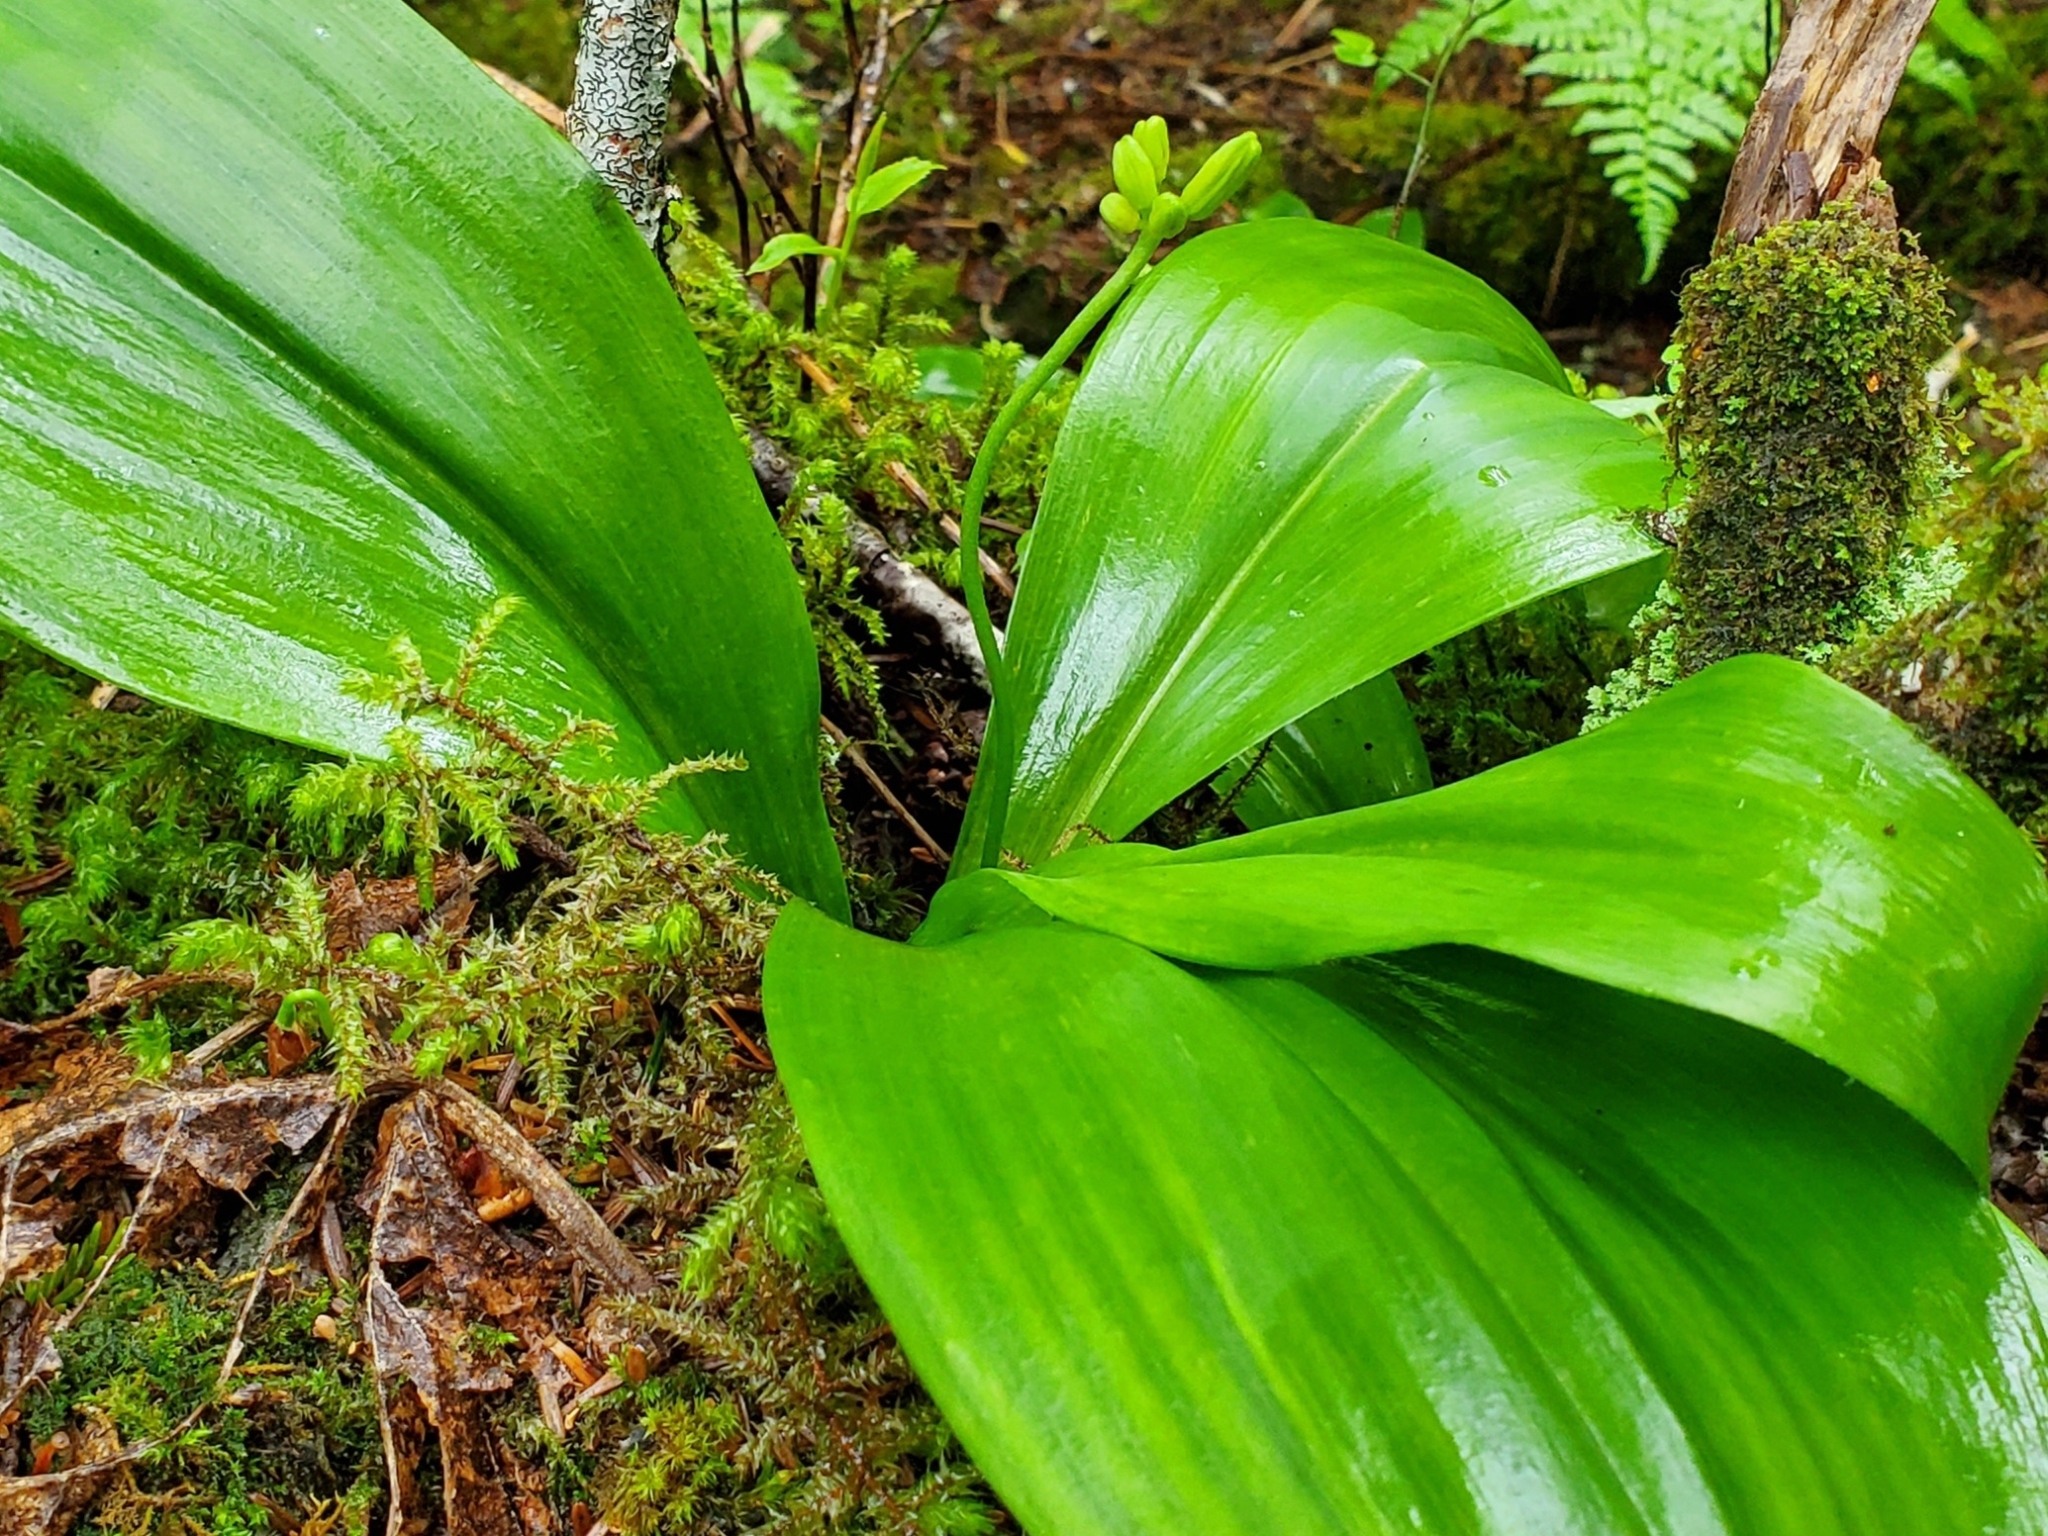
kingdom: Plantae
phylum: Tracheophyta
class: Liliopsida
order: Liliales
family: Liliaceae
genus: Clintonia
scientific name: Clintonia borealis
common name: Yellow clintonia
